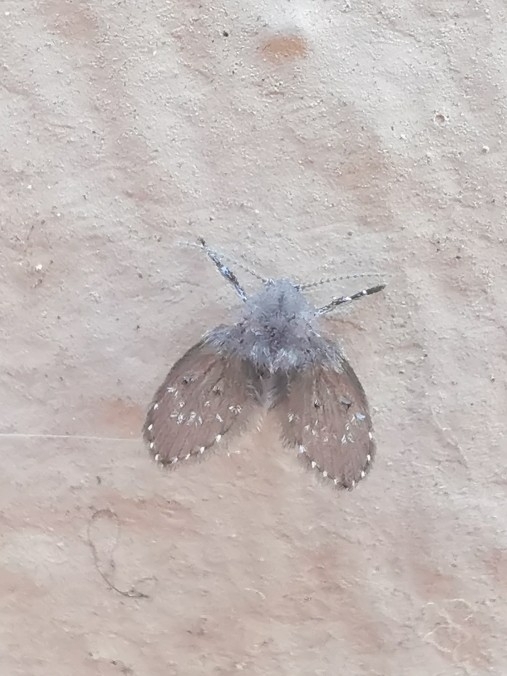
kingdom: Animalia
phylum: Arthropoda
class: Insecta
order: Diptera
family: Psychodidae
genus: Clogmia
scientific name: Clogmia albipunctatus
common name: White-spotted moth fly
